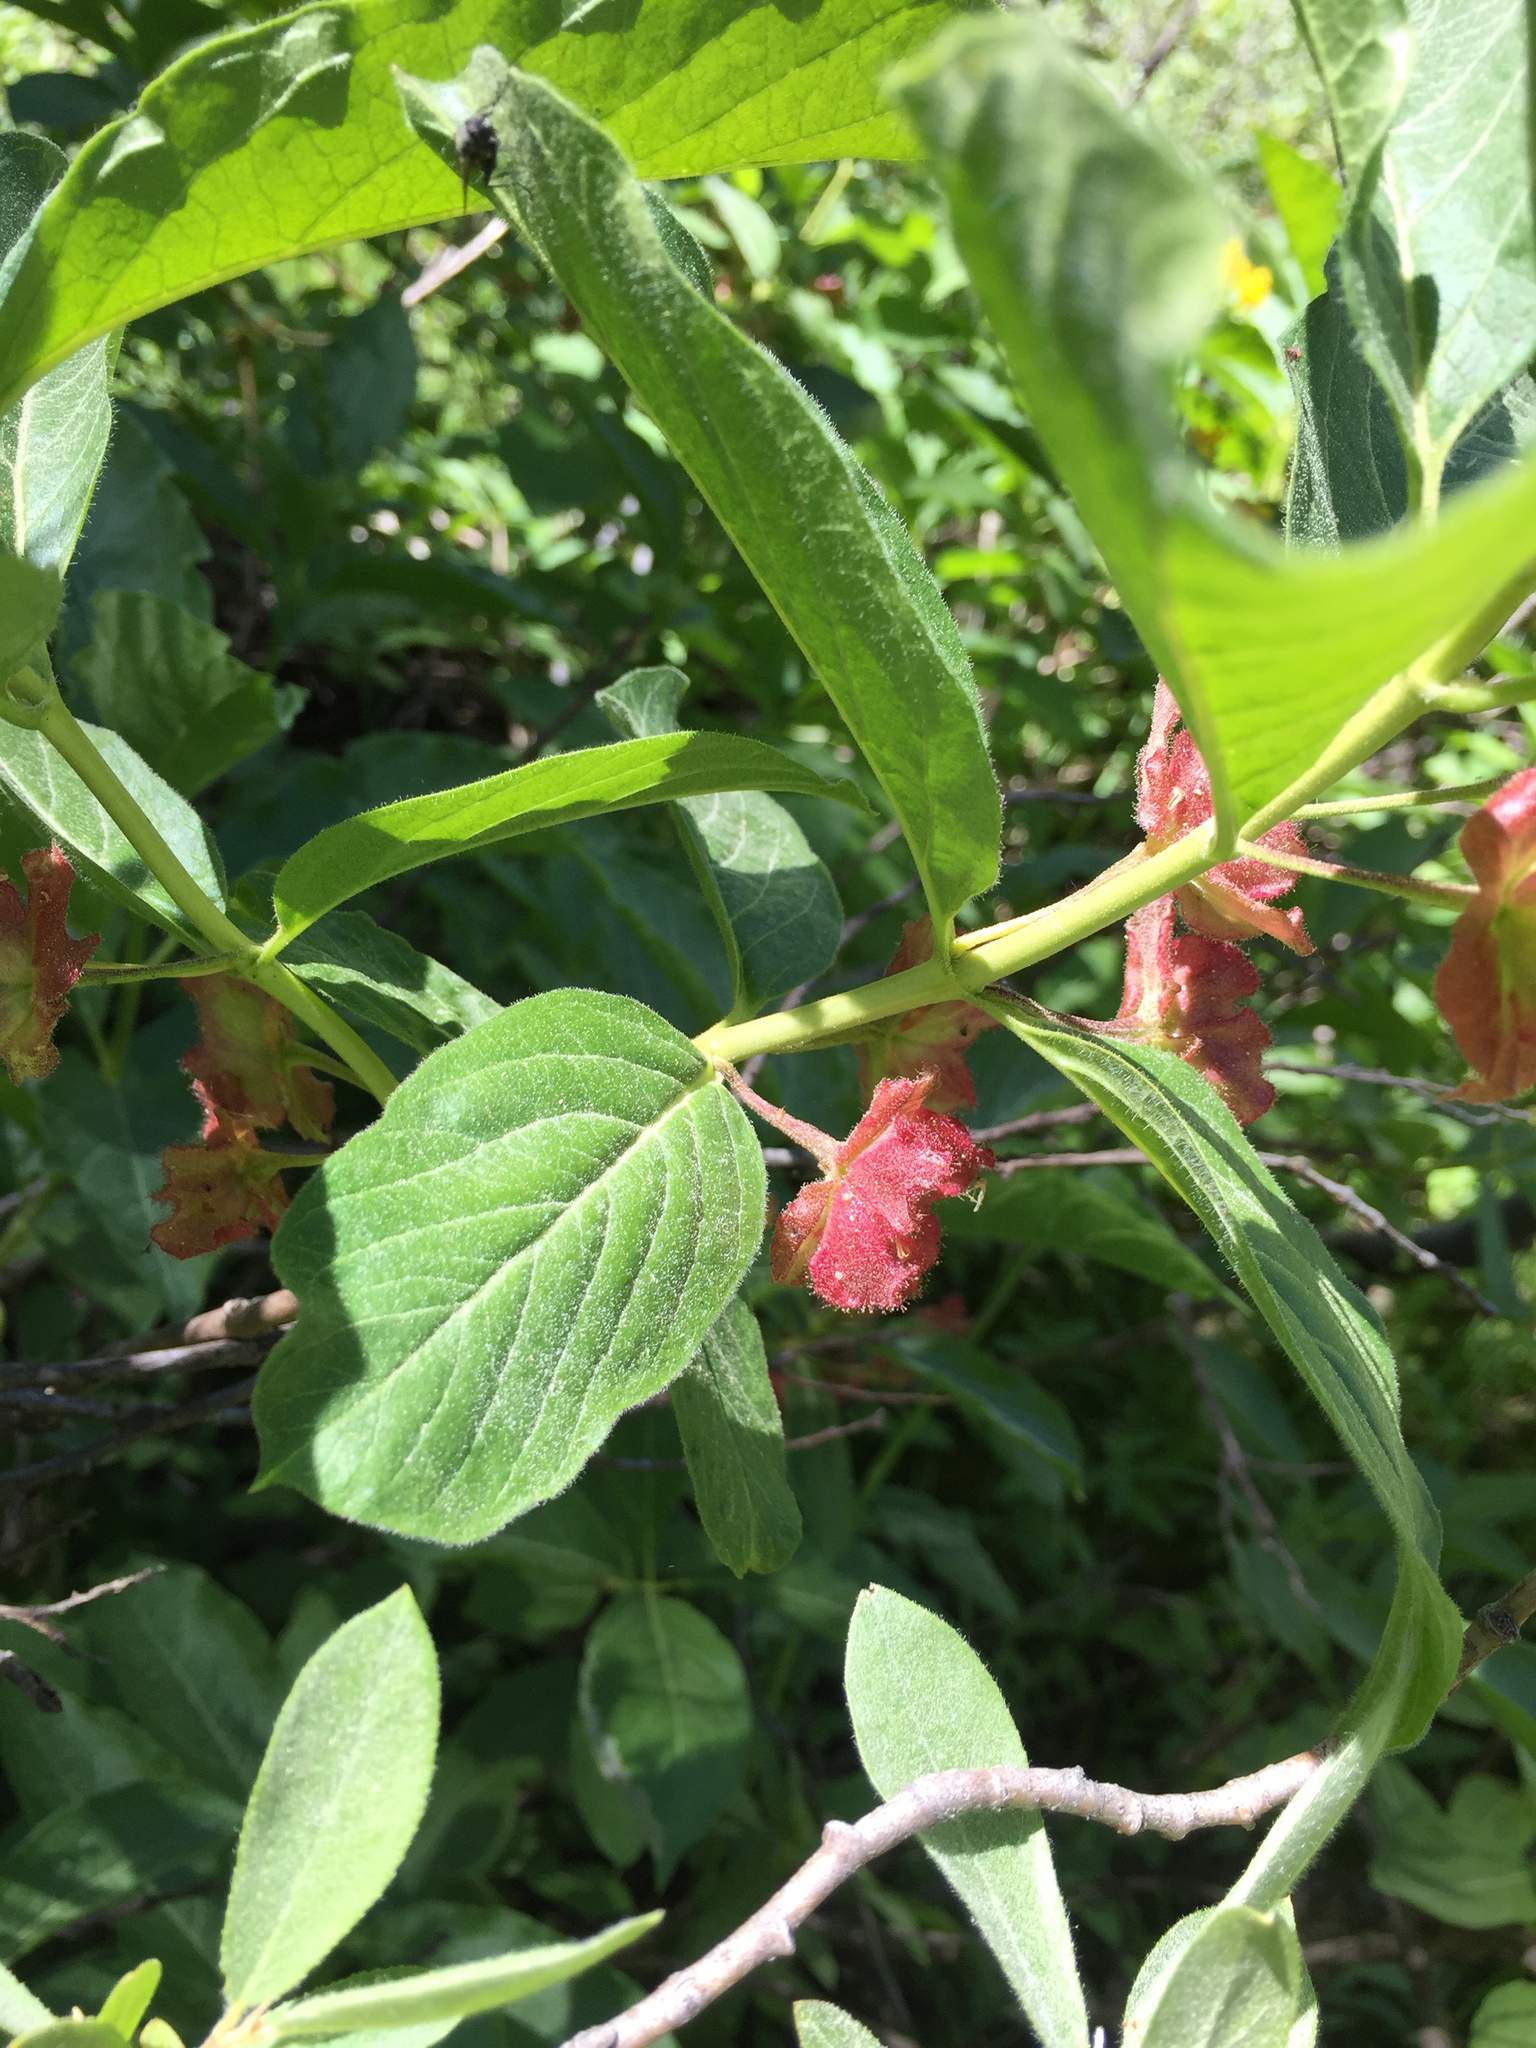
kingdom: Plantae
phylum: Tracheophyta
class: Magnoliopsida
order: Dipsacales
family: Caprifoliaceae
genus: Lonicera
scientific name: Lonicera involucrata
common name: Californian honeysuckle
